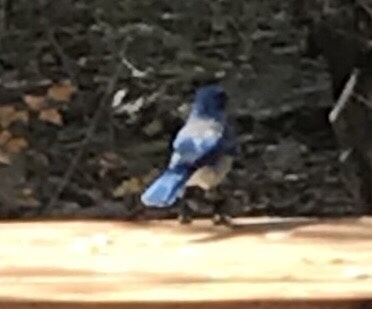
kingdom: Animalia
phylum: Chordata
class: Aves
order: Passeriformes
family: Corvidae
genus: Aphelocoma
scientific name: Aphelocoma woodhouseii
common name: Woodhouse's scrub-jay
